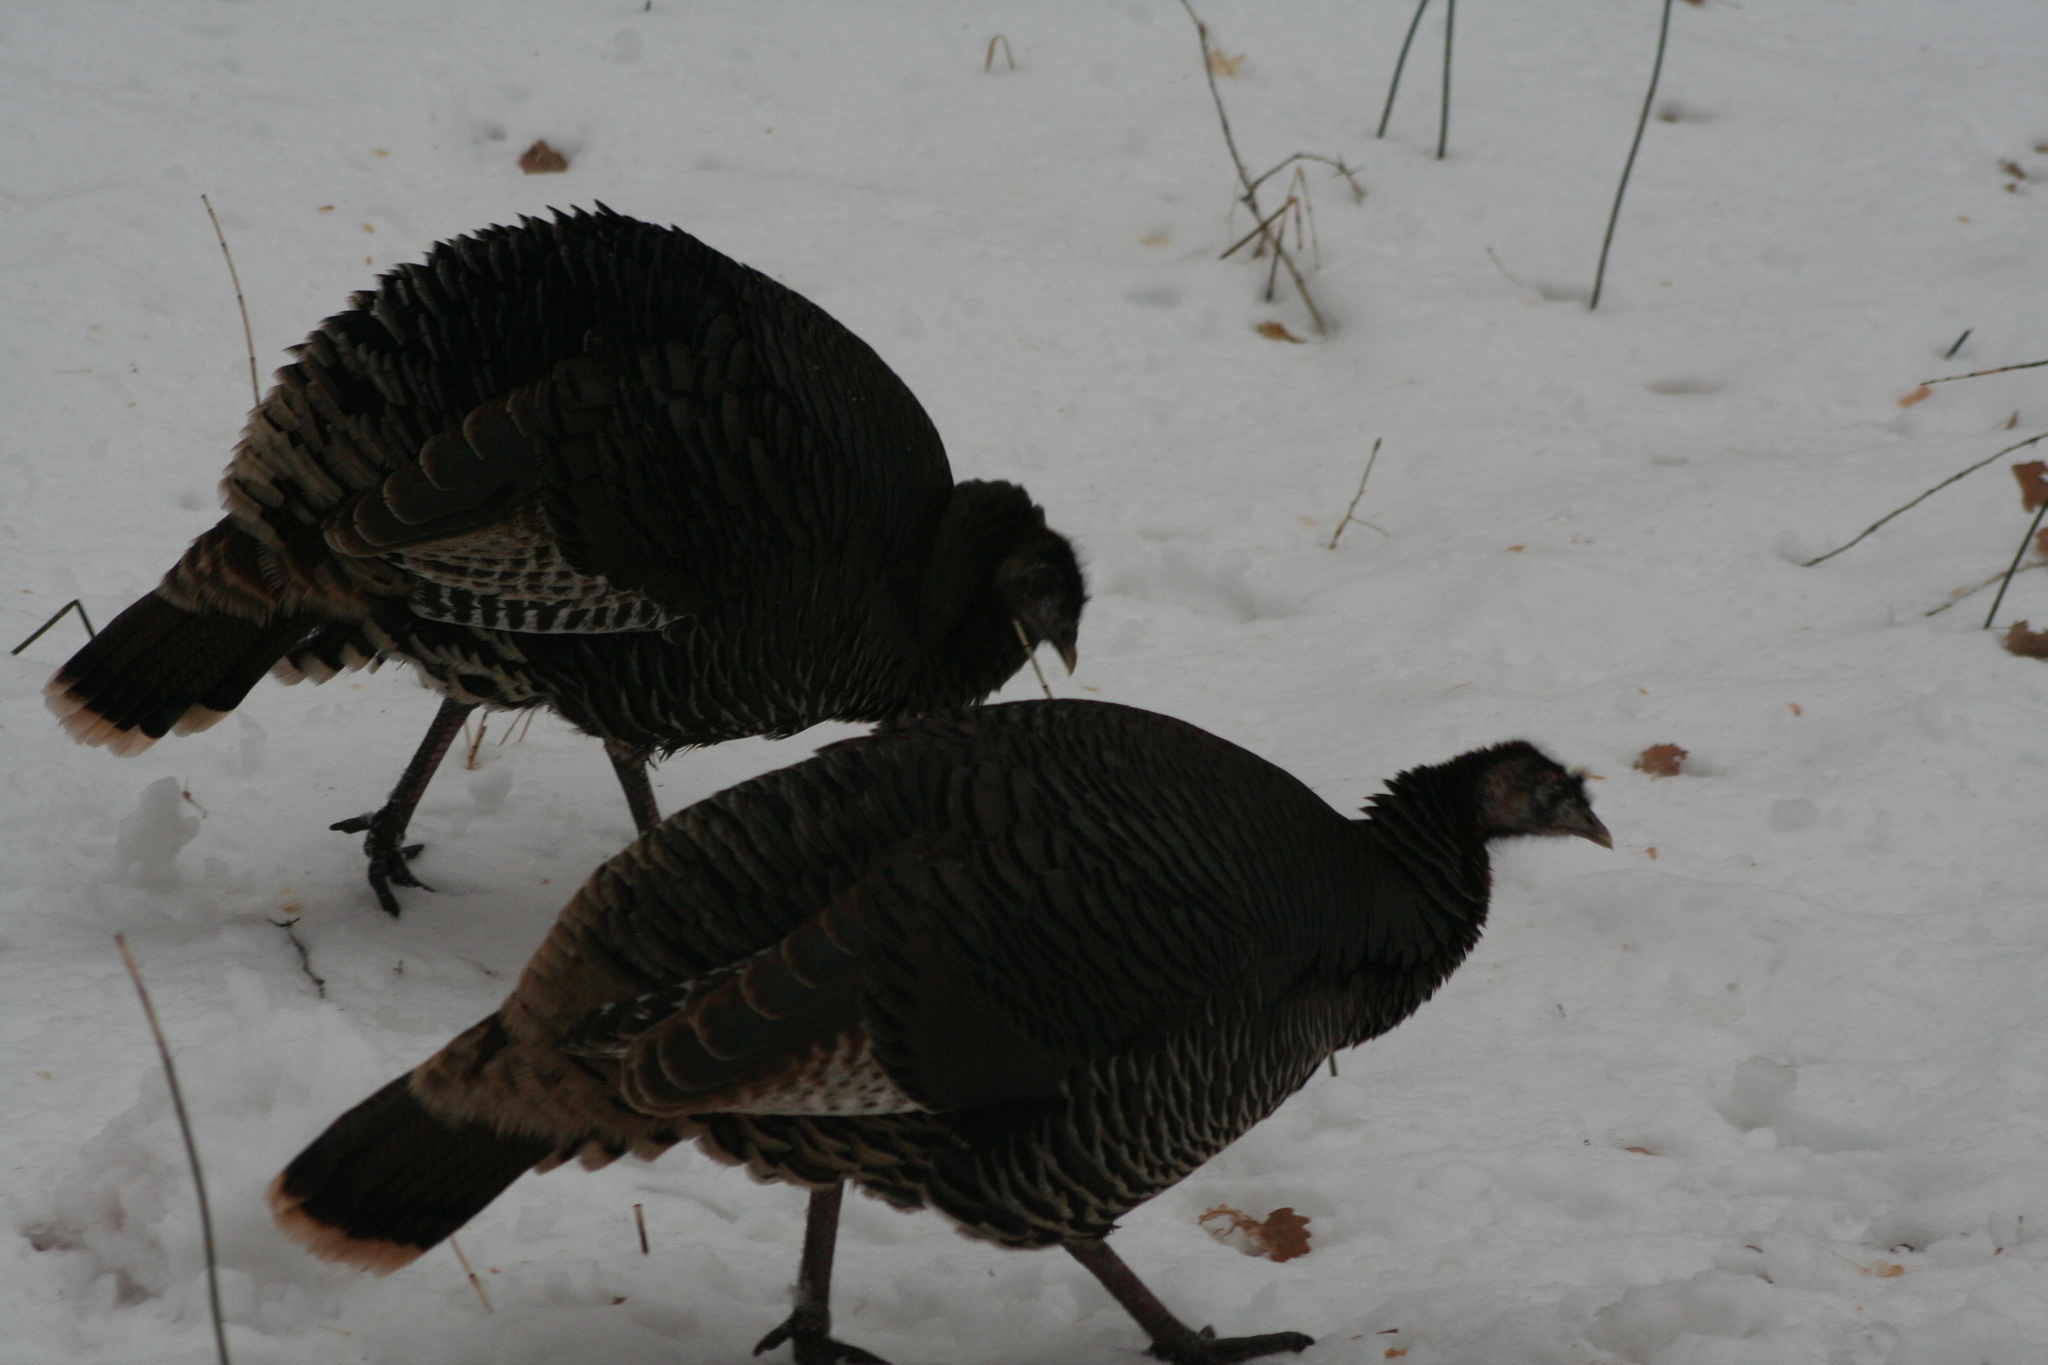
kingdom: Animalia
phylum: Chordata
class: Aves
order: Galliformes
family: Phasianidae
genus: Meleagris
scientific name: Meleagris gallopavo
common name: Wild turkey
